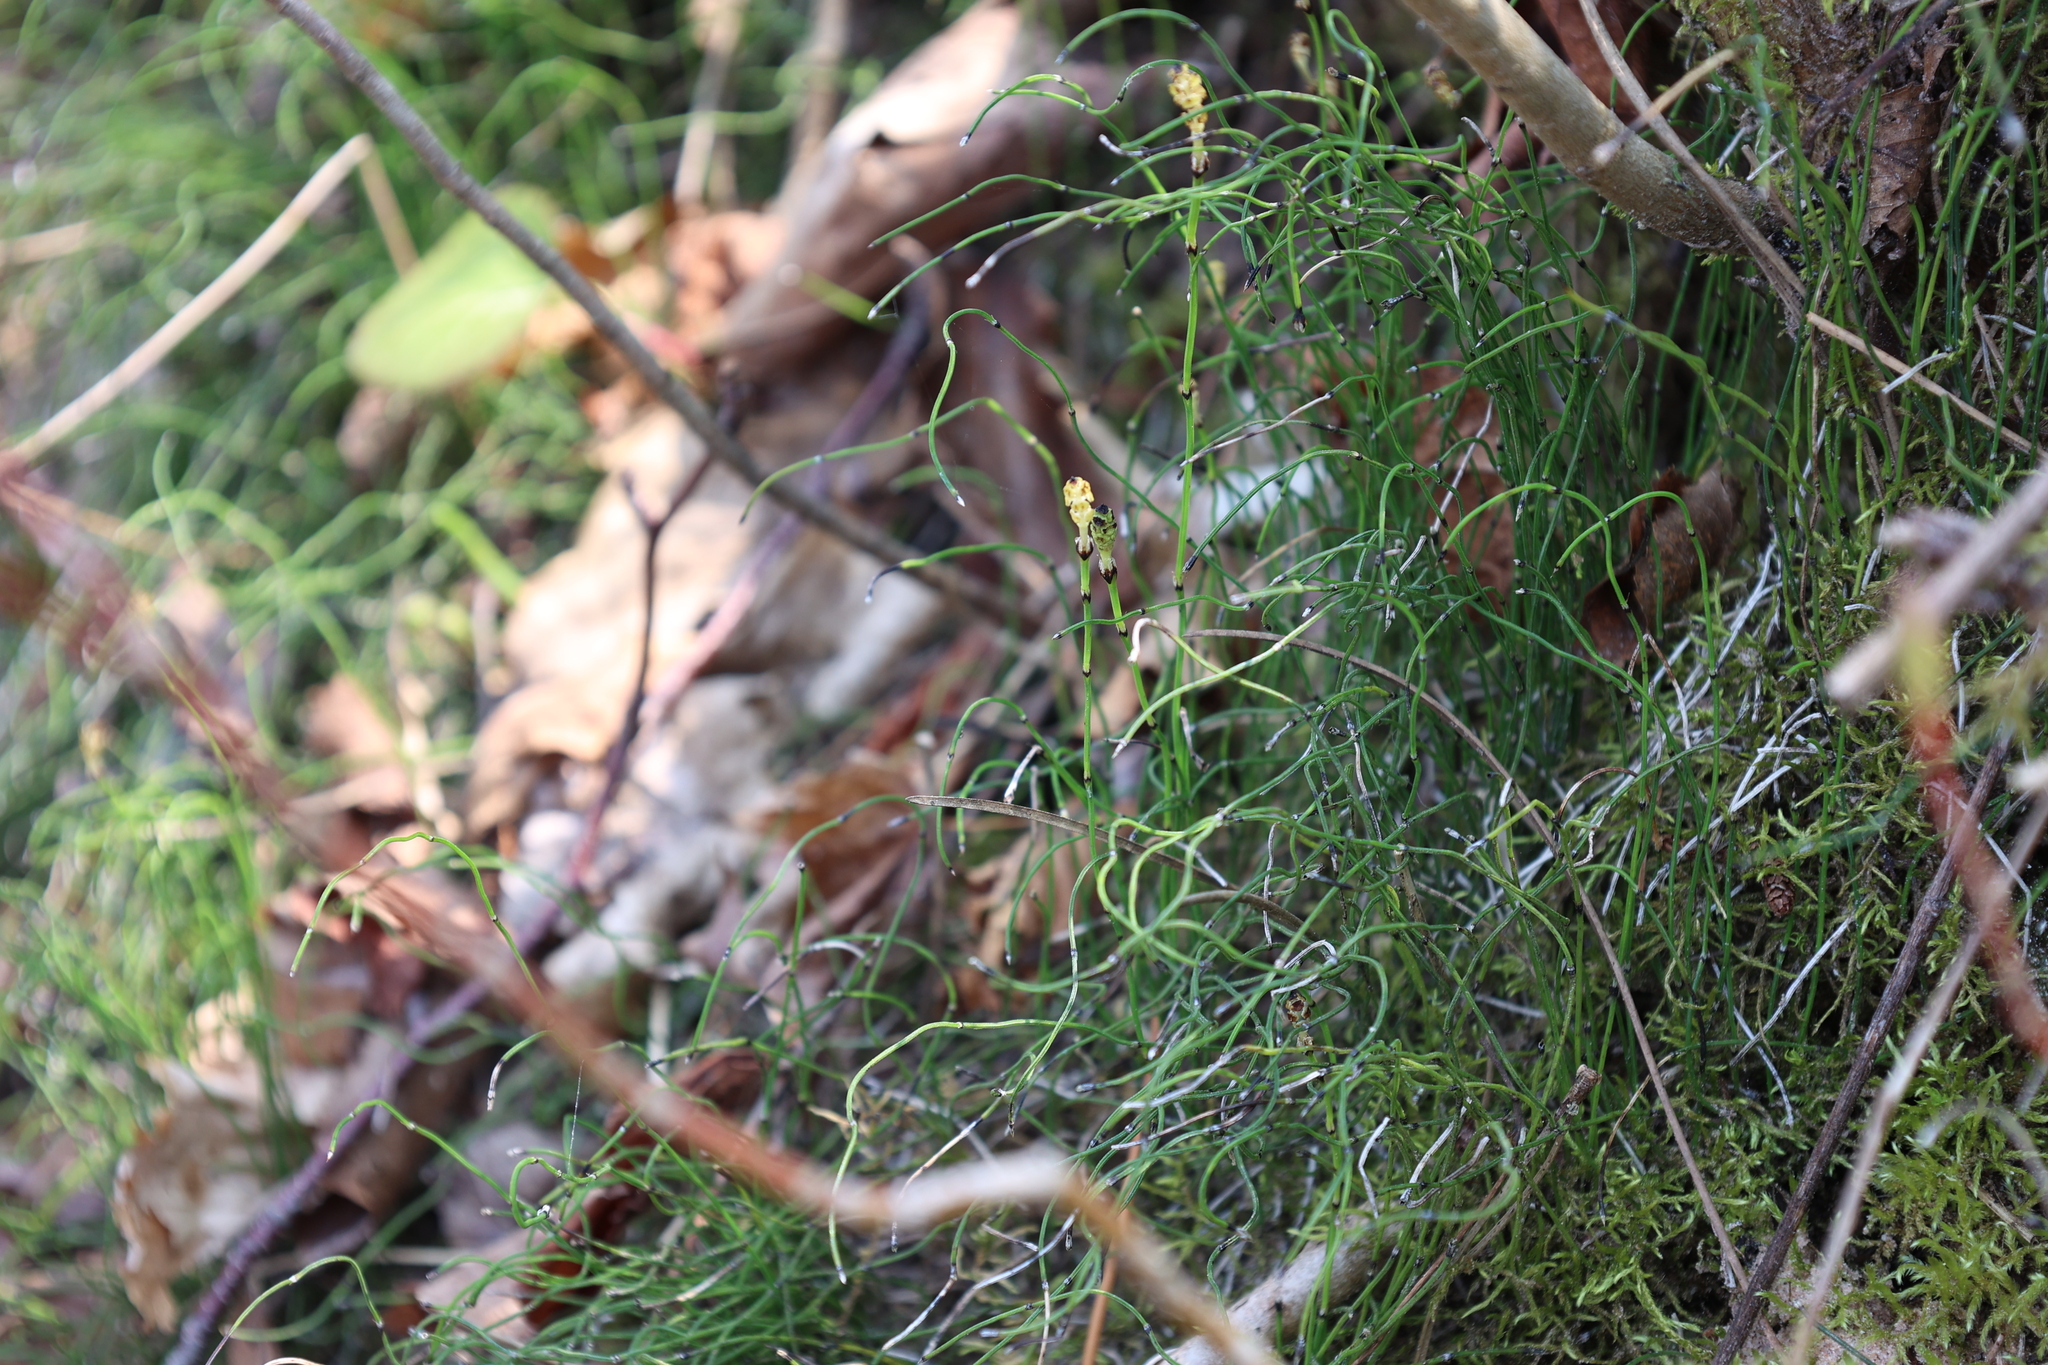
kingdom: Plantae
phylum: Tracheophyta
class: Polypodiopsida
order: Equisetales
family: Equisetaceae
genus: Equisetum
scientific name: Equisetum scirpoides
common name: Delicate horsetail
